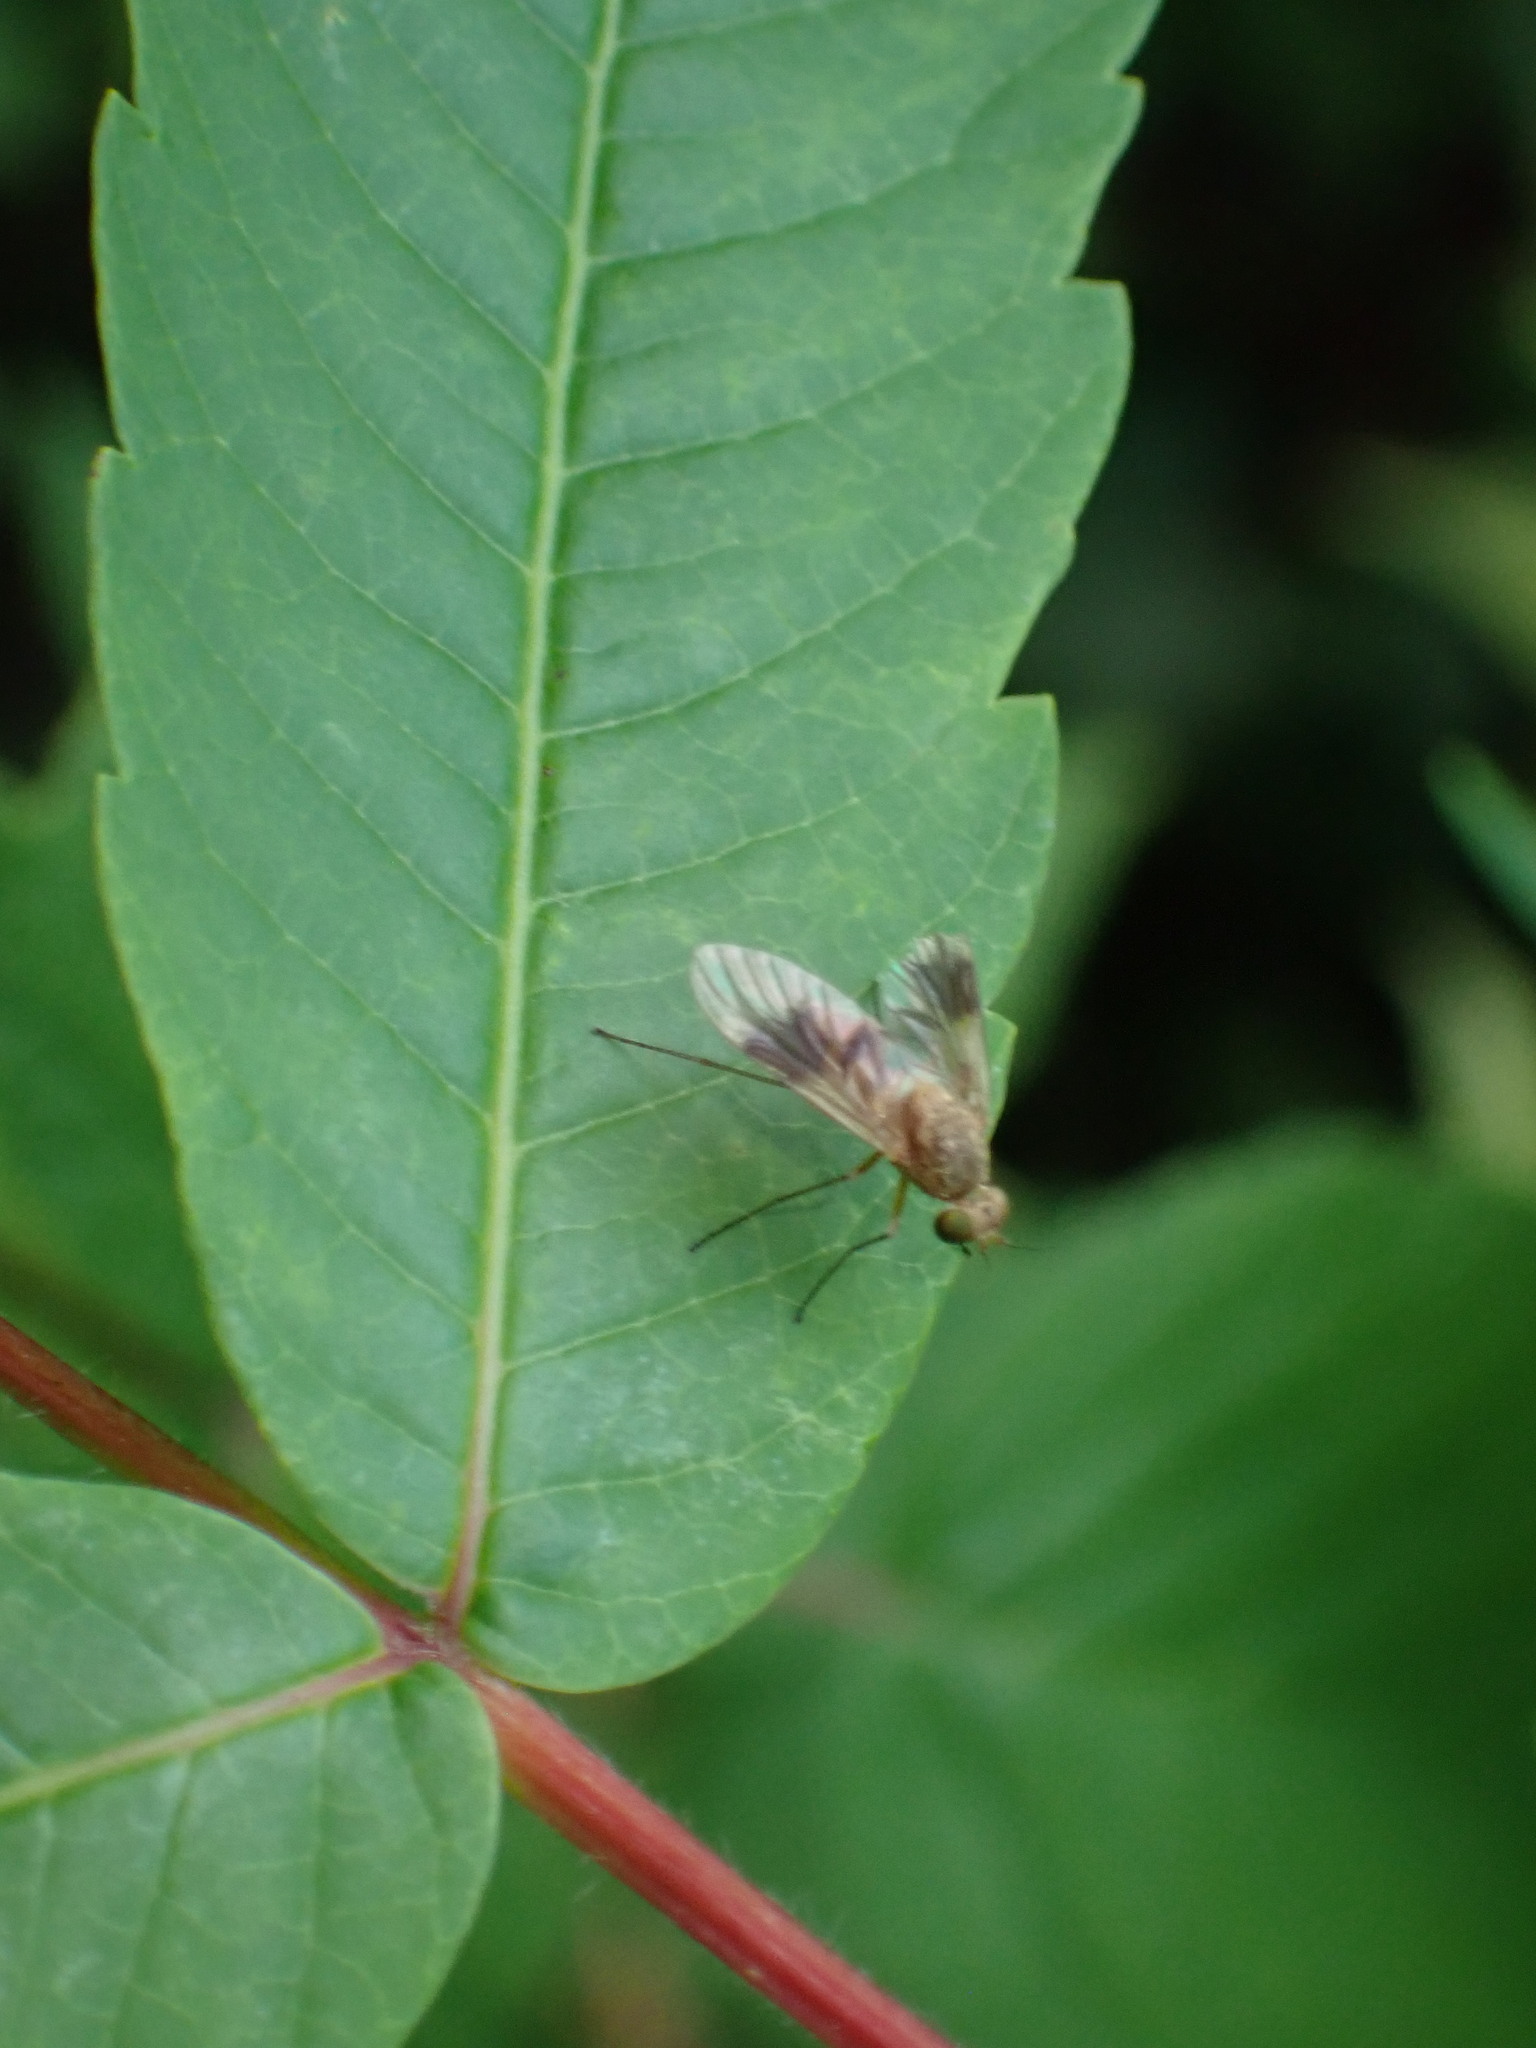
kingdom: Animalia
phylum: Arthropoda
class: Insecta
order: Diptera
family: Rhagionidae
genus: Chrysopilus
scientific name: Chrysopilus quadratus
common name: Quadrate snipe fly
